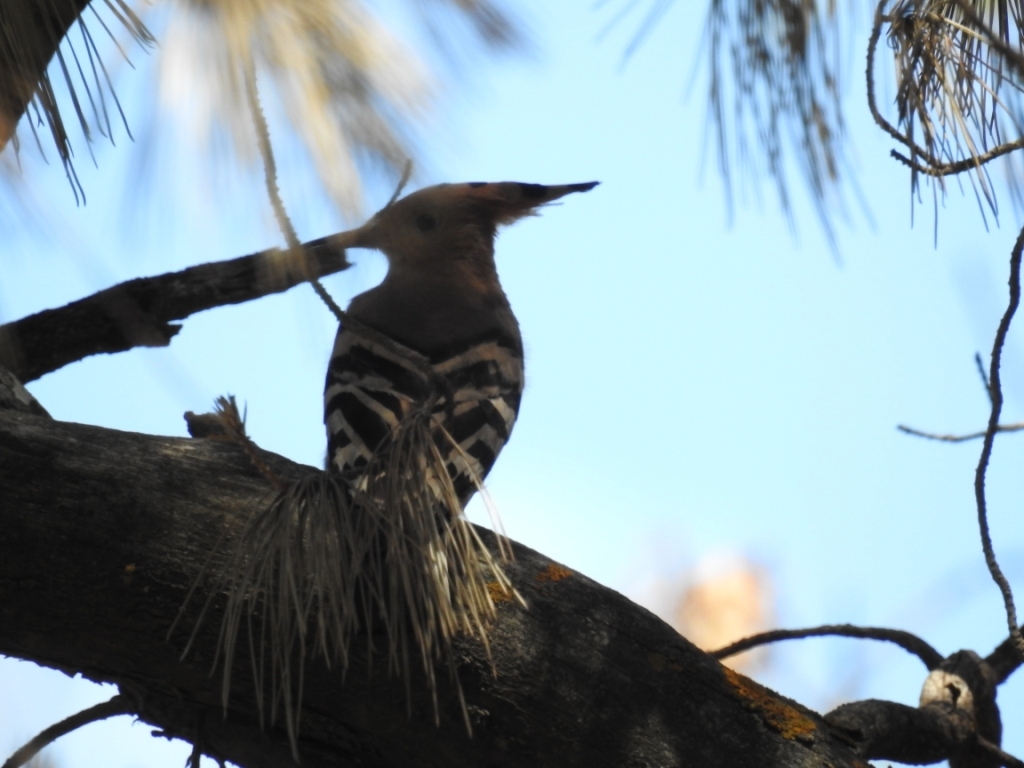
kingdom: Animalia
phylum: Chordata
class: Aves
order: Bucerotiformes
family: Upupidae
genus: Upupa
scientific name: Upupa epops
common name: Eurasian hoopoe
